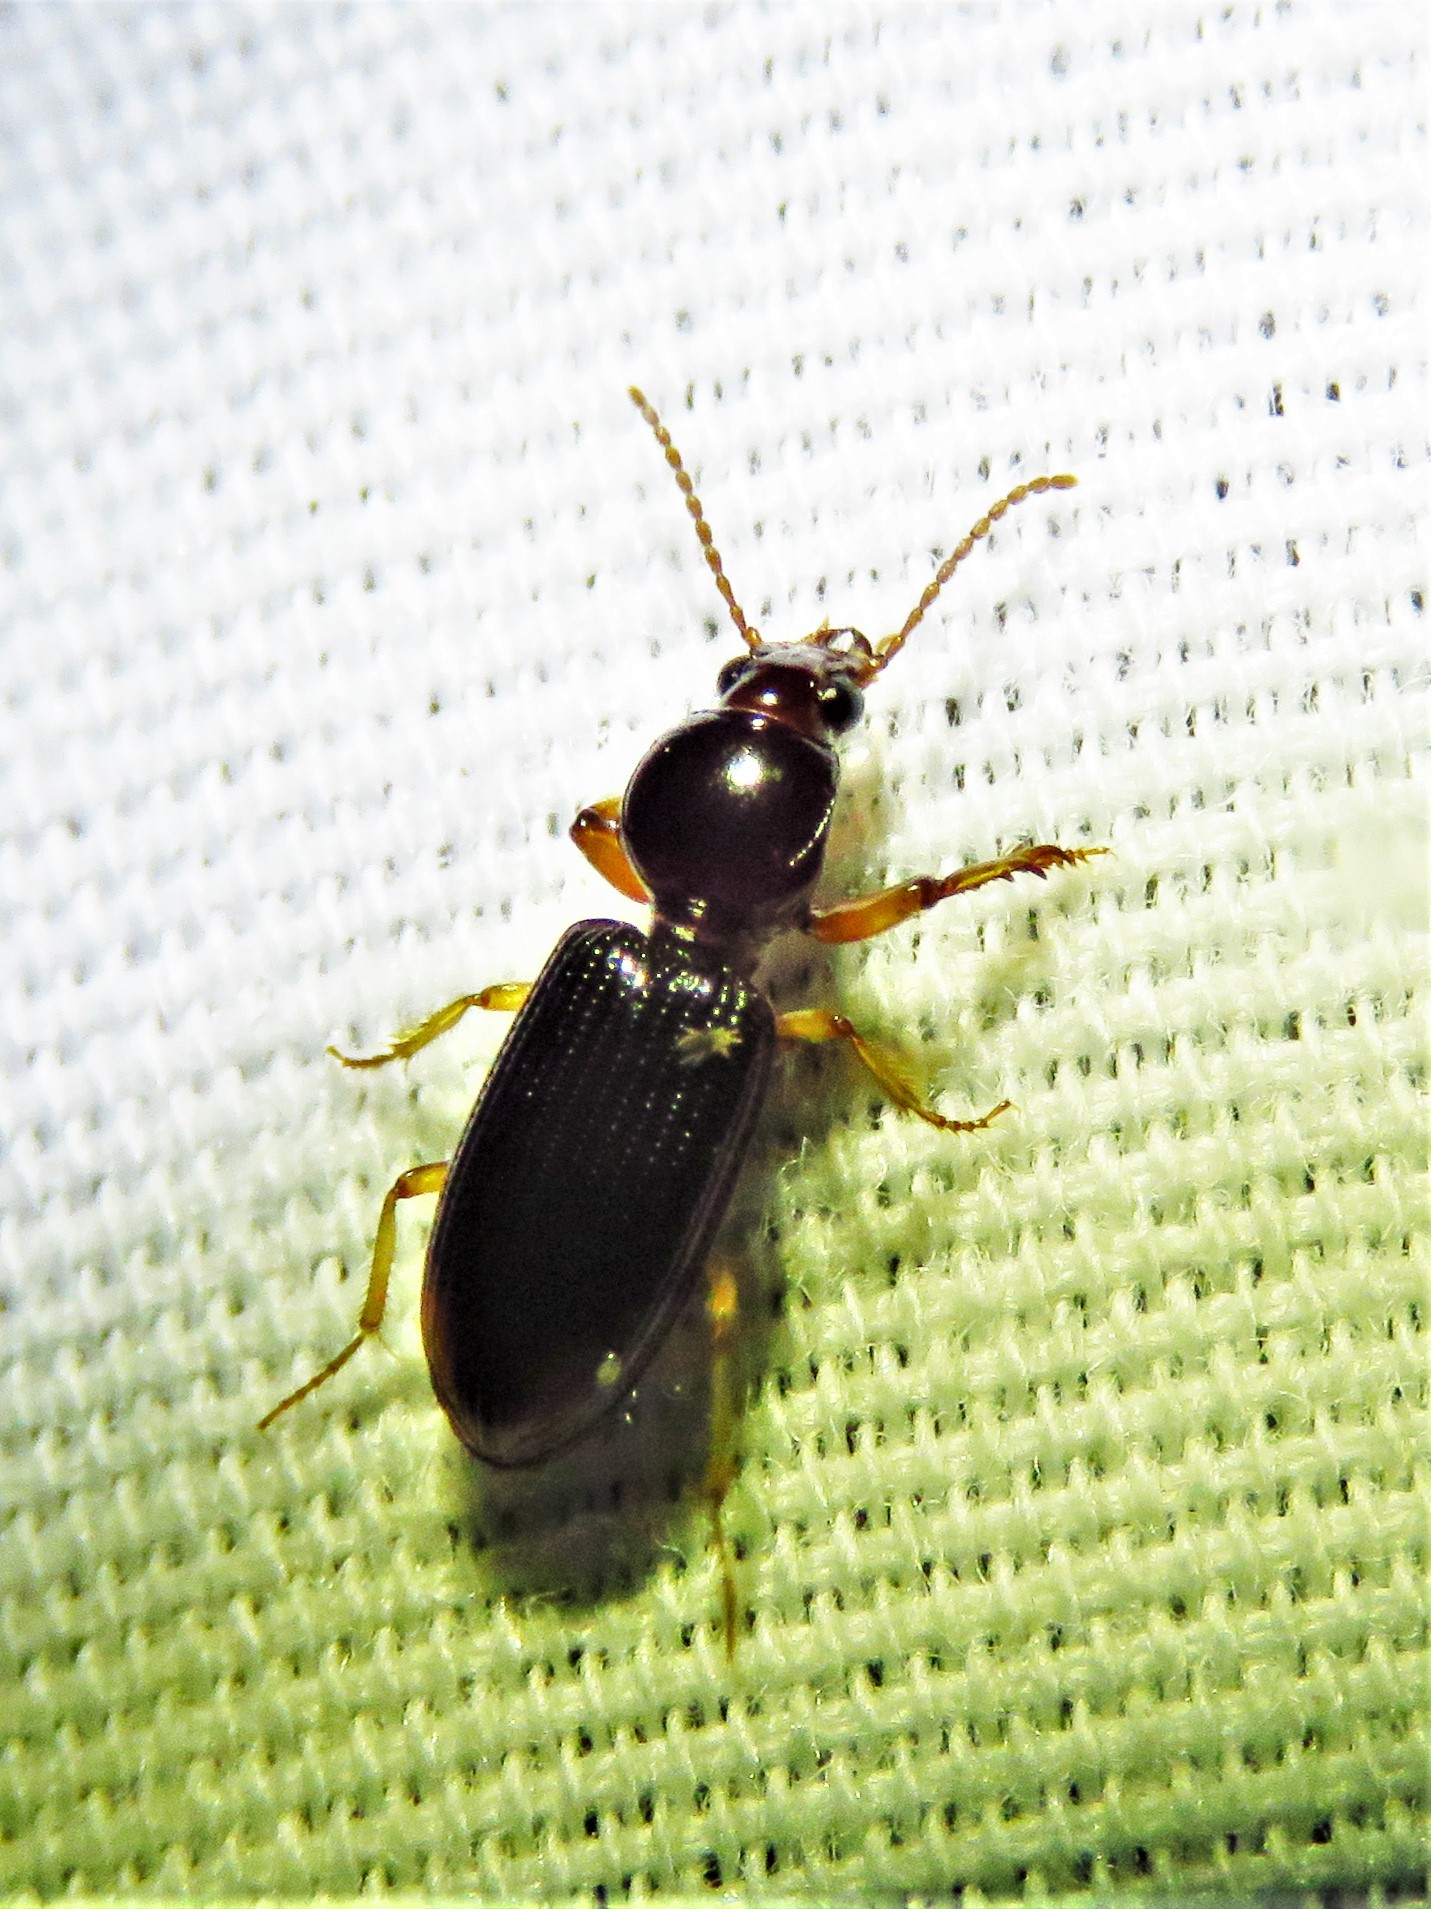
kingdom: Animalia
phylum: Arthropoda
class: Insecta
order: Coleoptera
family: Carabidae
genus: Aspidoglossa
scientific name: Aspidoglossa subangulata
